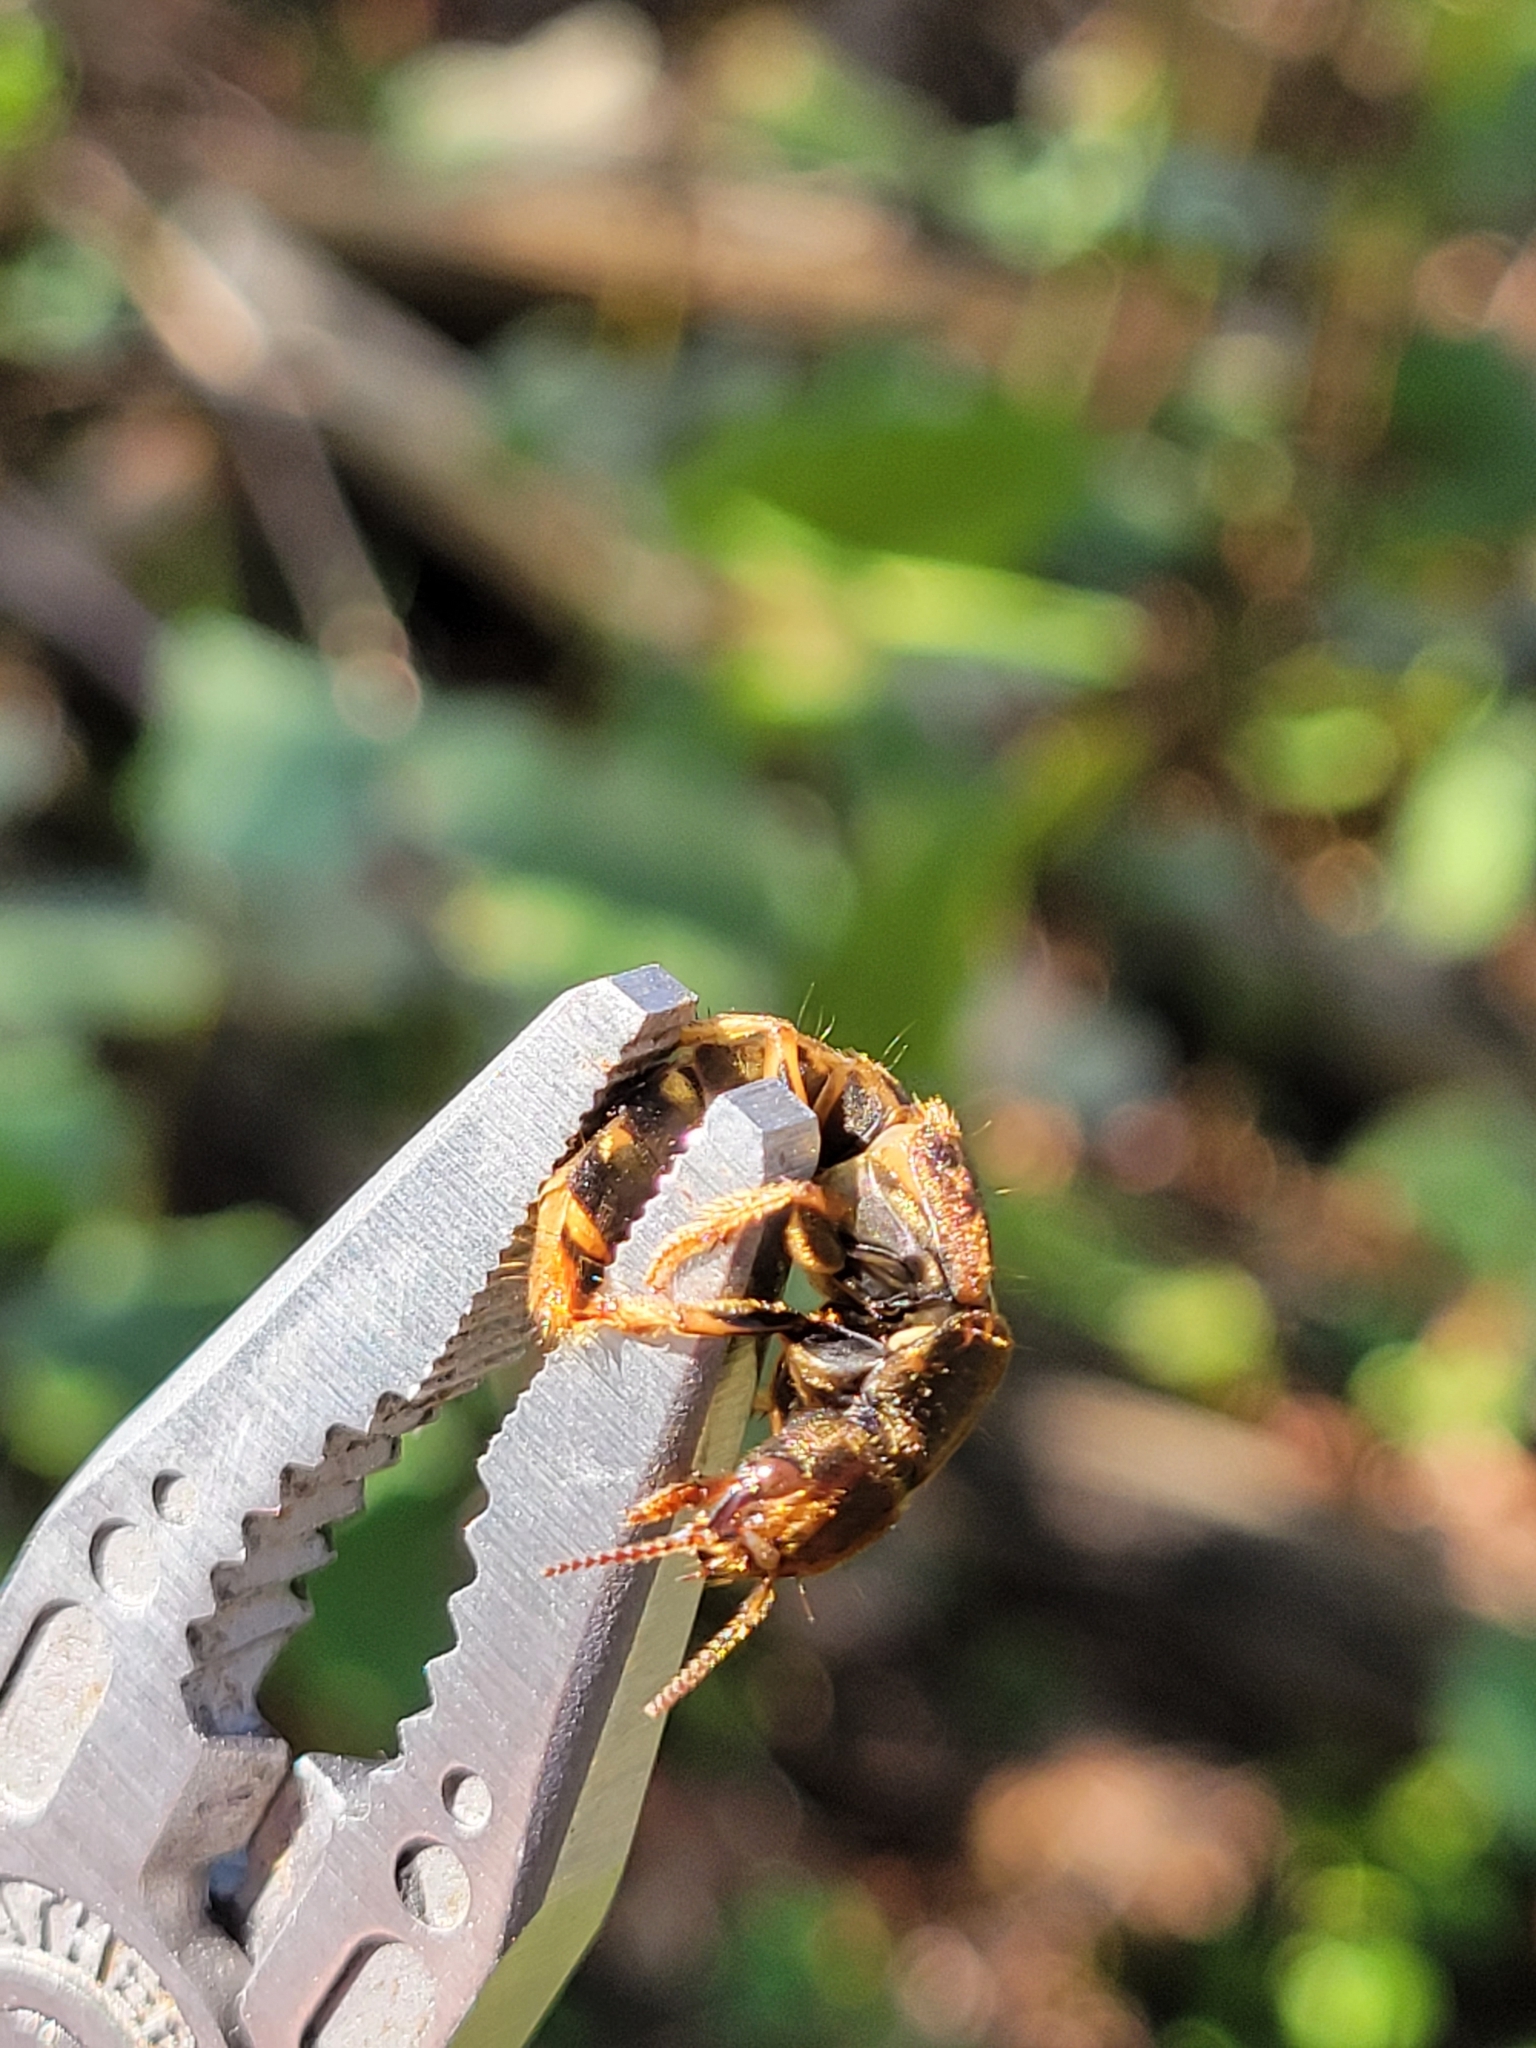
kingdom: Animalia
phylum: Arthropoda
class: Insecta
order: Coleoptera
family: Staphylinidae
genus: Platydracus
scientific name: Platydracus maculosus
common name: Brown rove beetle
